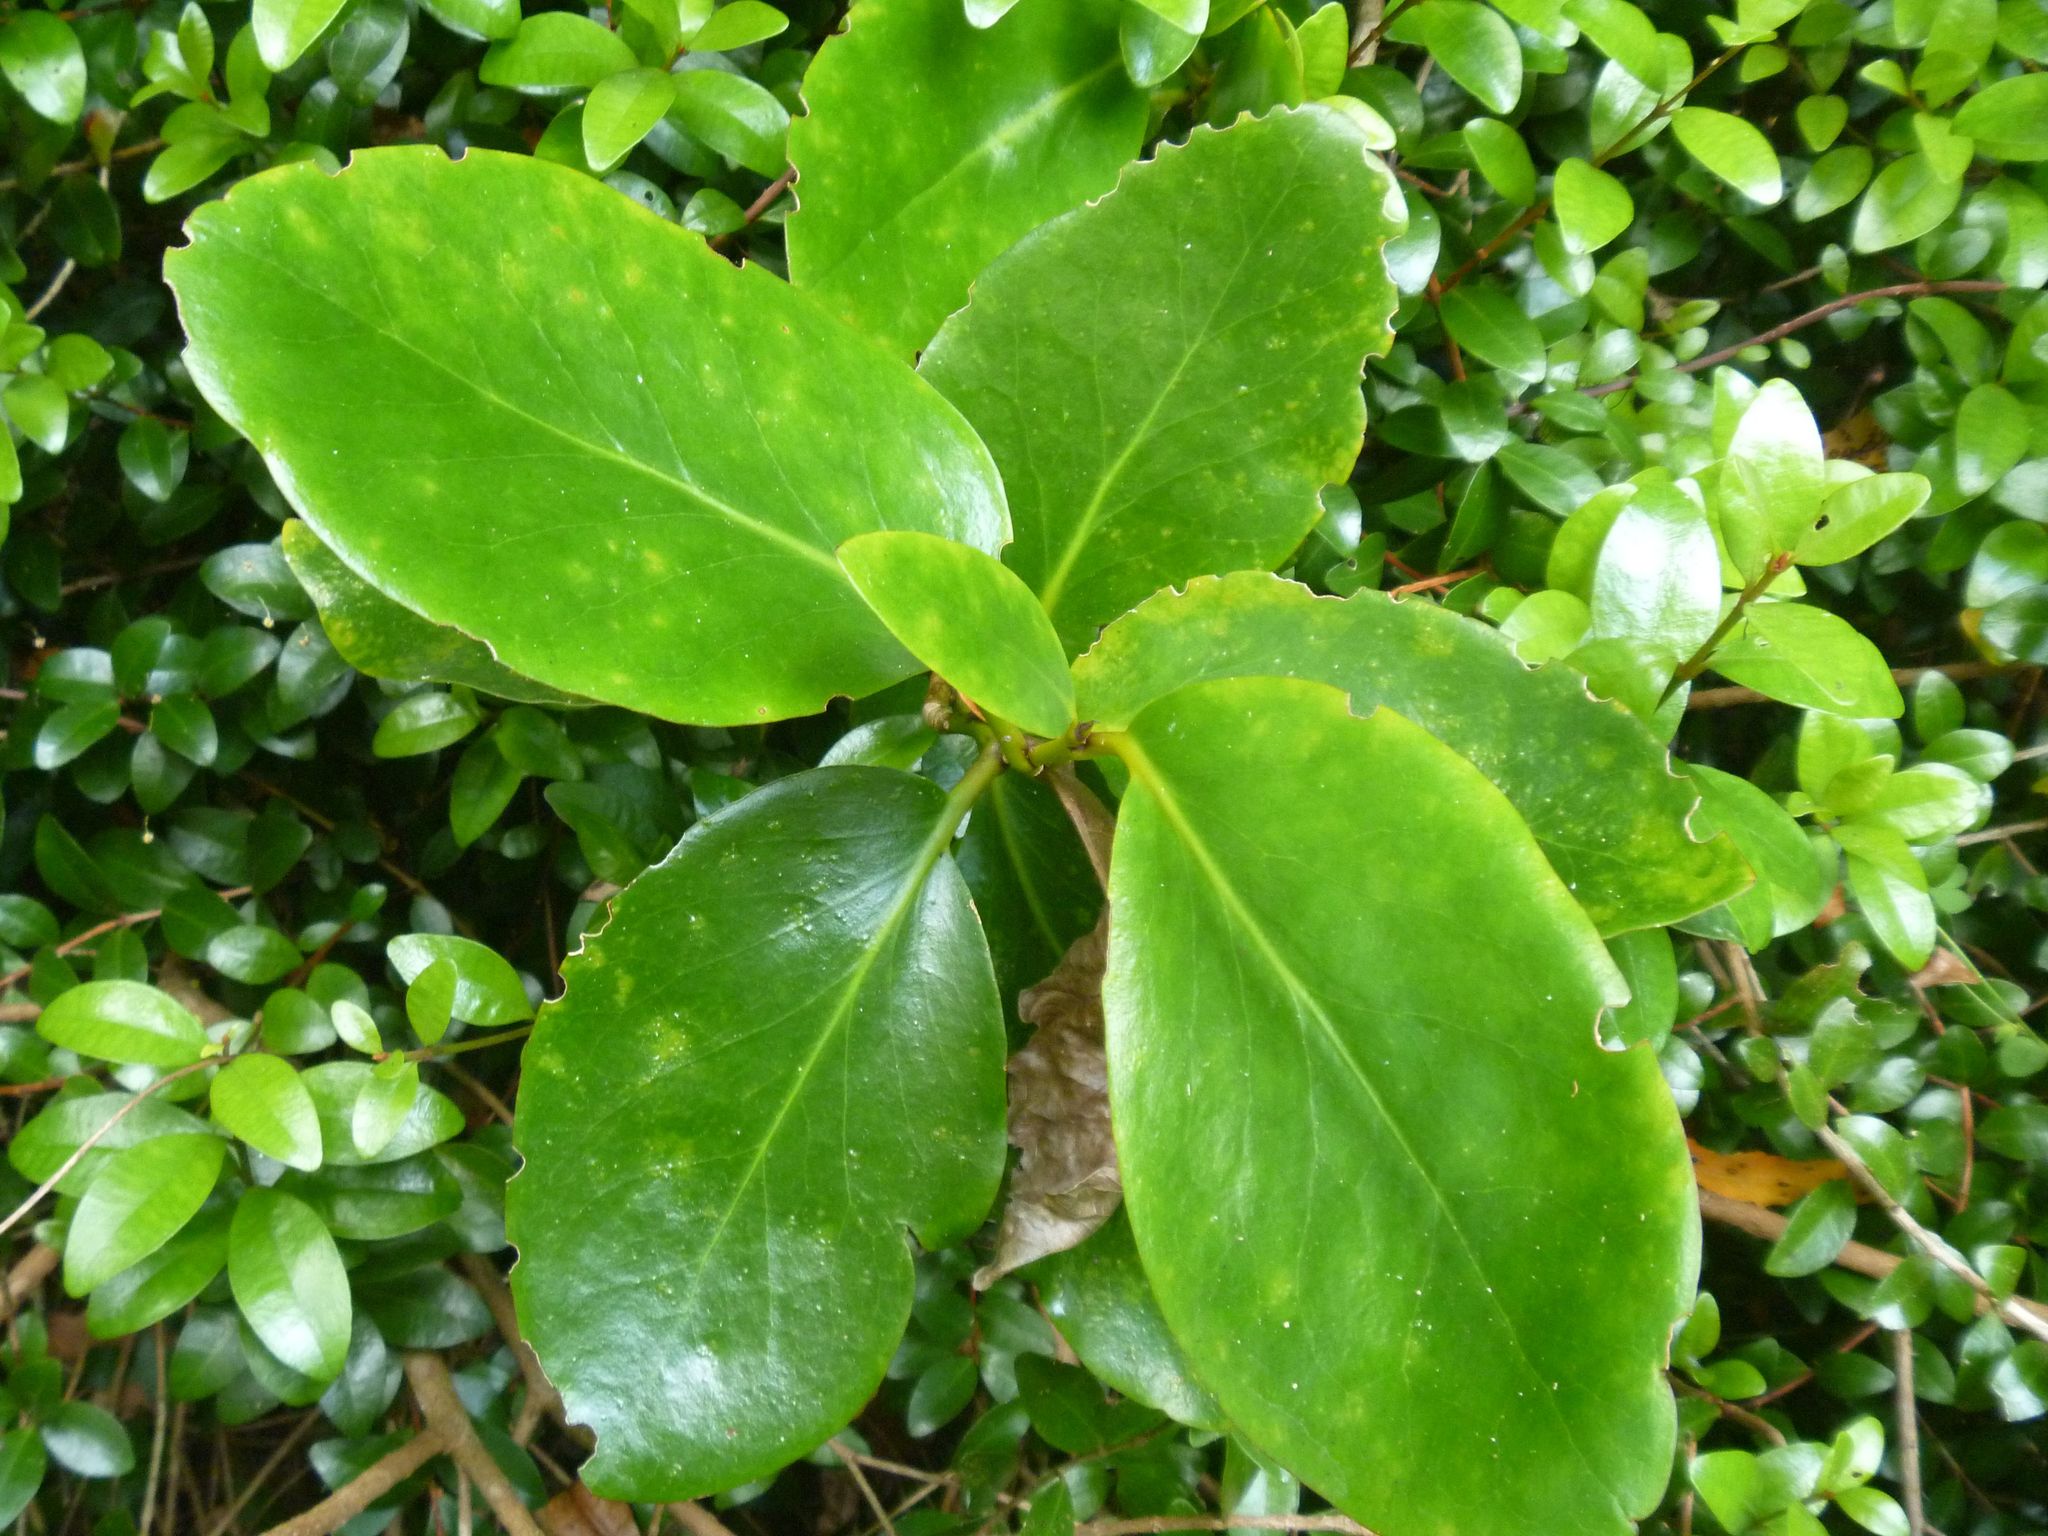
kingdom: Plantae
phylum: Tracheophyta
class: Magnoliopsida
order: Apiales
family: Griseliniaceae
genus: Griselinia
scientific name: Griselinia lucida
